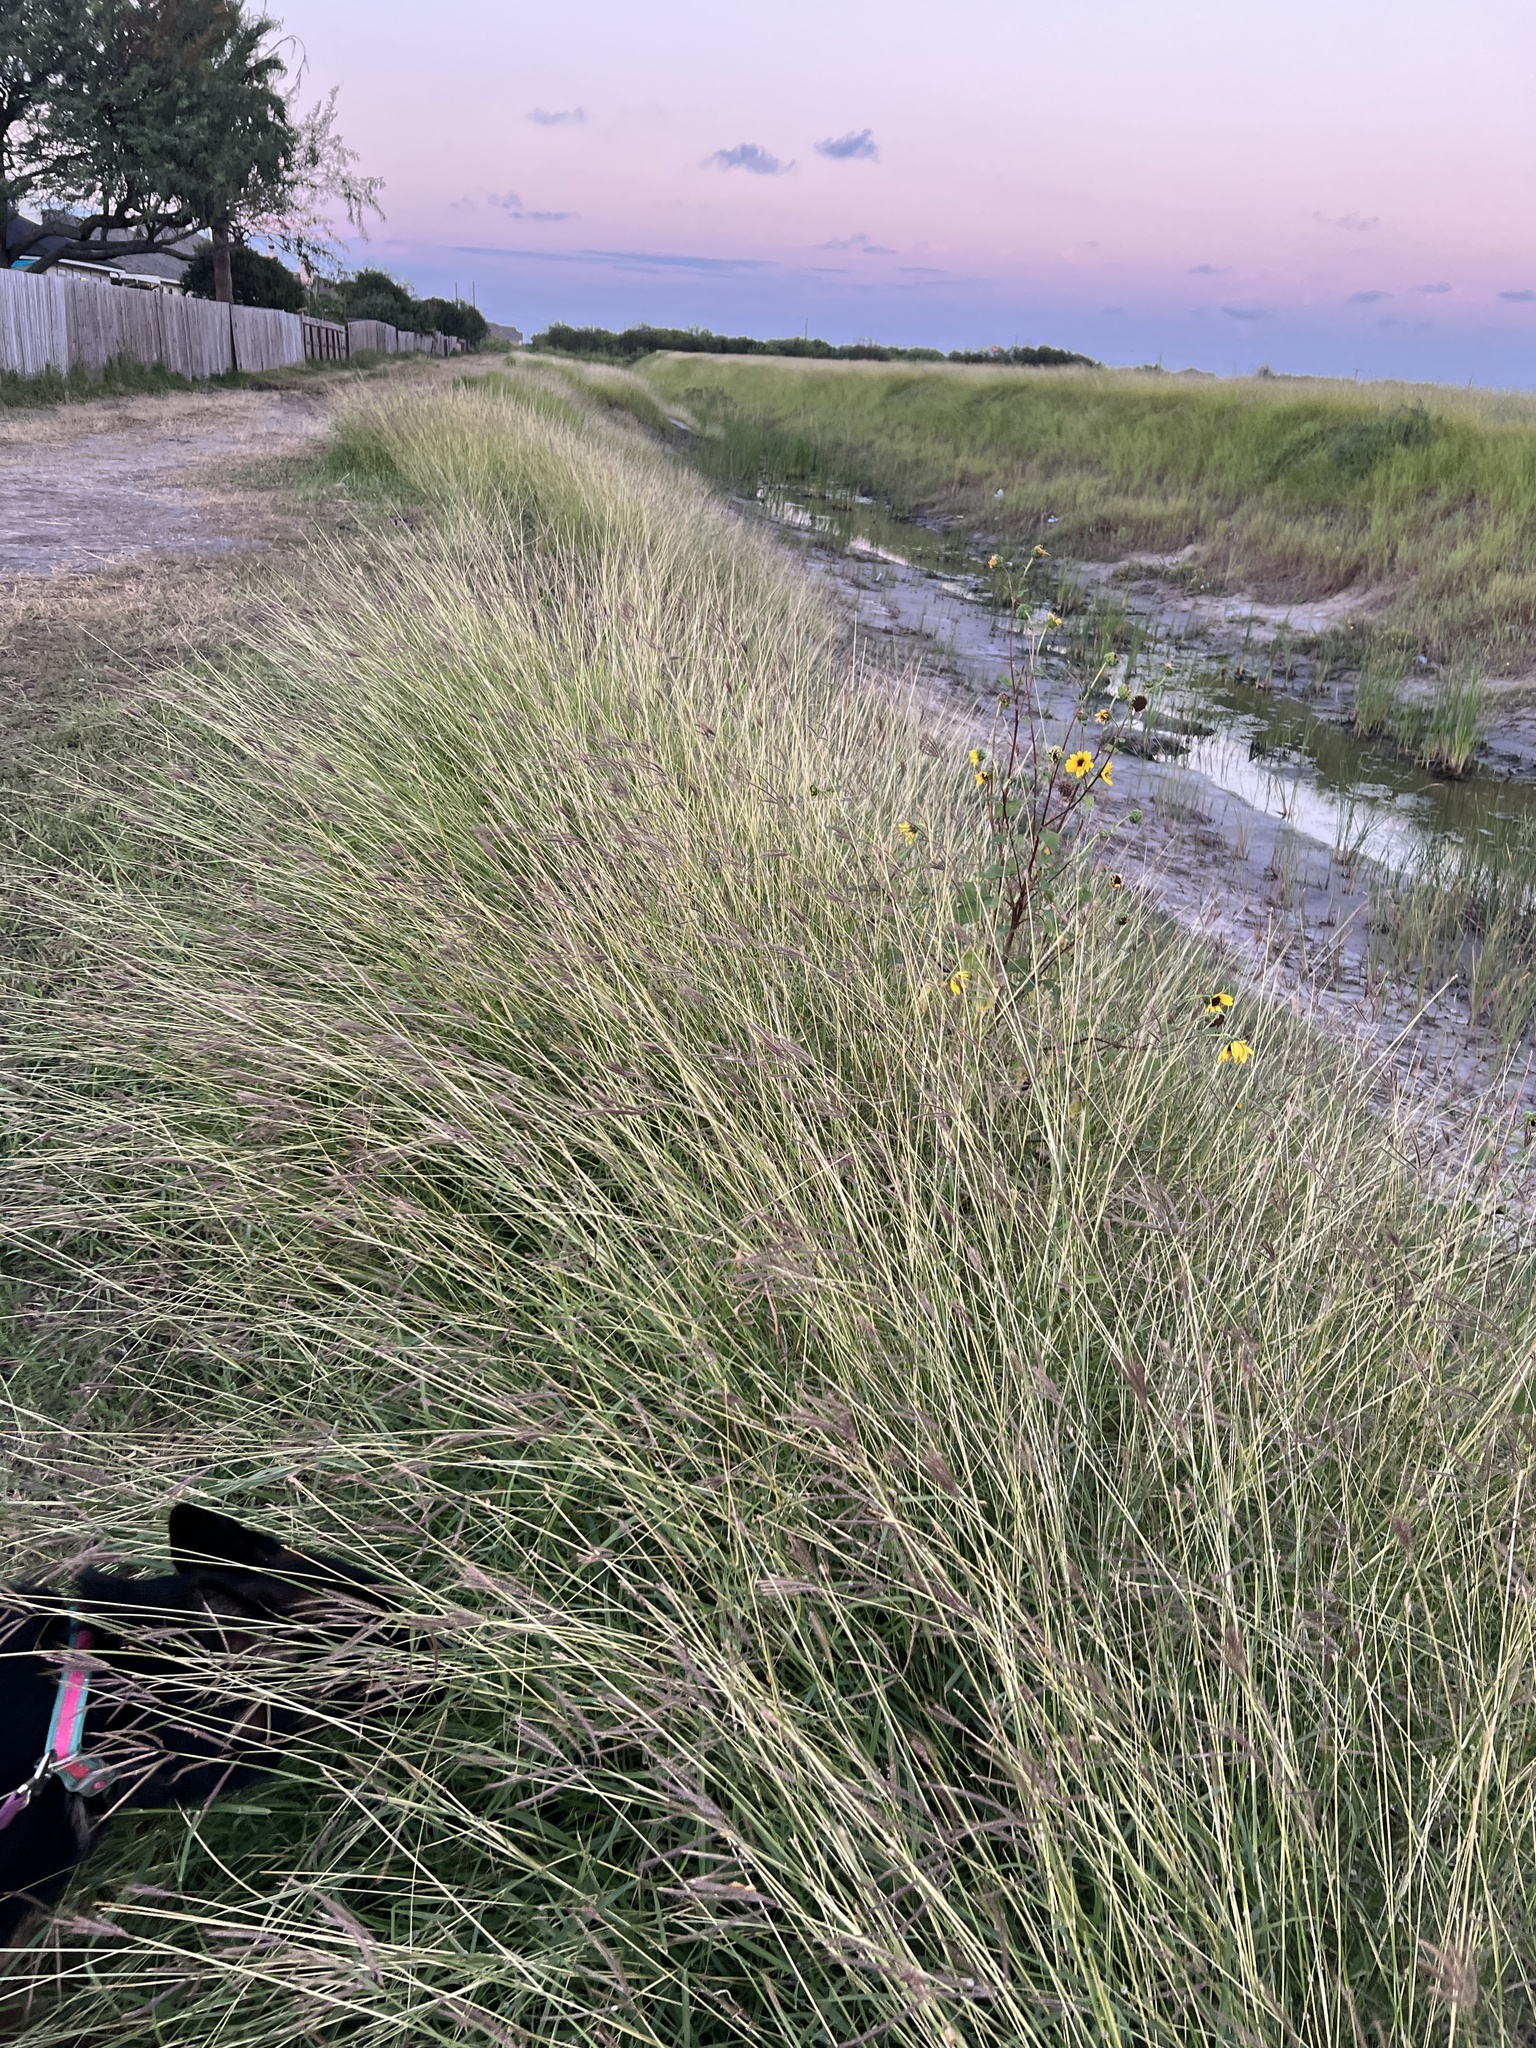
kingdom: Plantae
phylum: Tracheophyta
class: Liliopsida
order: Poales
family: Poaceae
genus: Dichanthium
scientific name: Dichanthium annulatum
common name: Kleberg's bluestem
